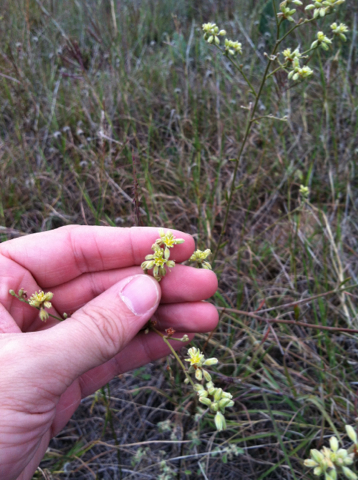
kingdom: Plantae
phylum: Tracheophyta
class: Magnoliopsida
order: Caryophyllales
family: Polygonaceae
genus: Eriogonum
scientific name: Eriogonum longifolium
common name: Longleaf wild buckwheat
